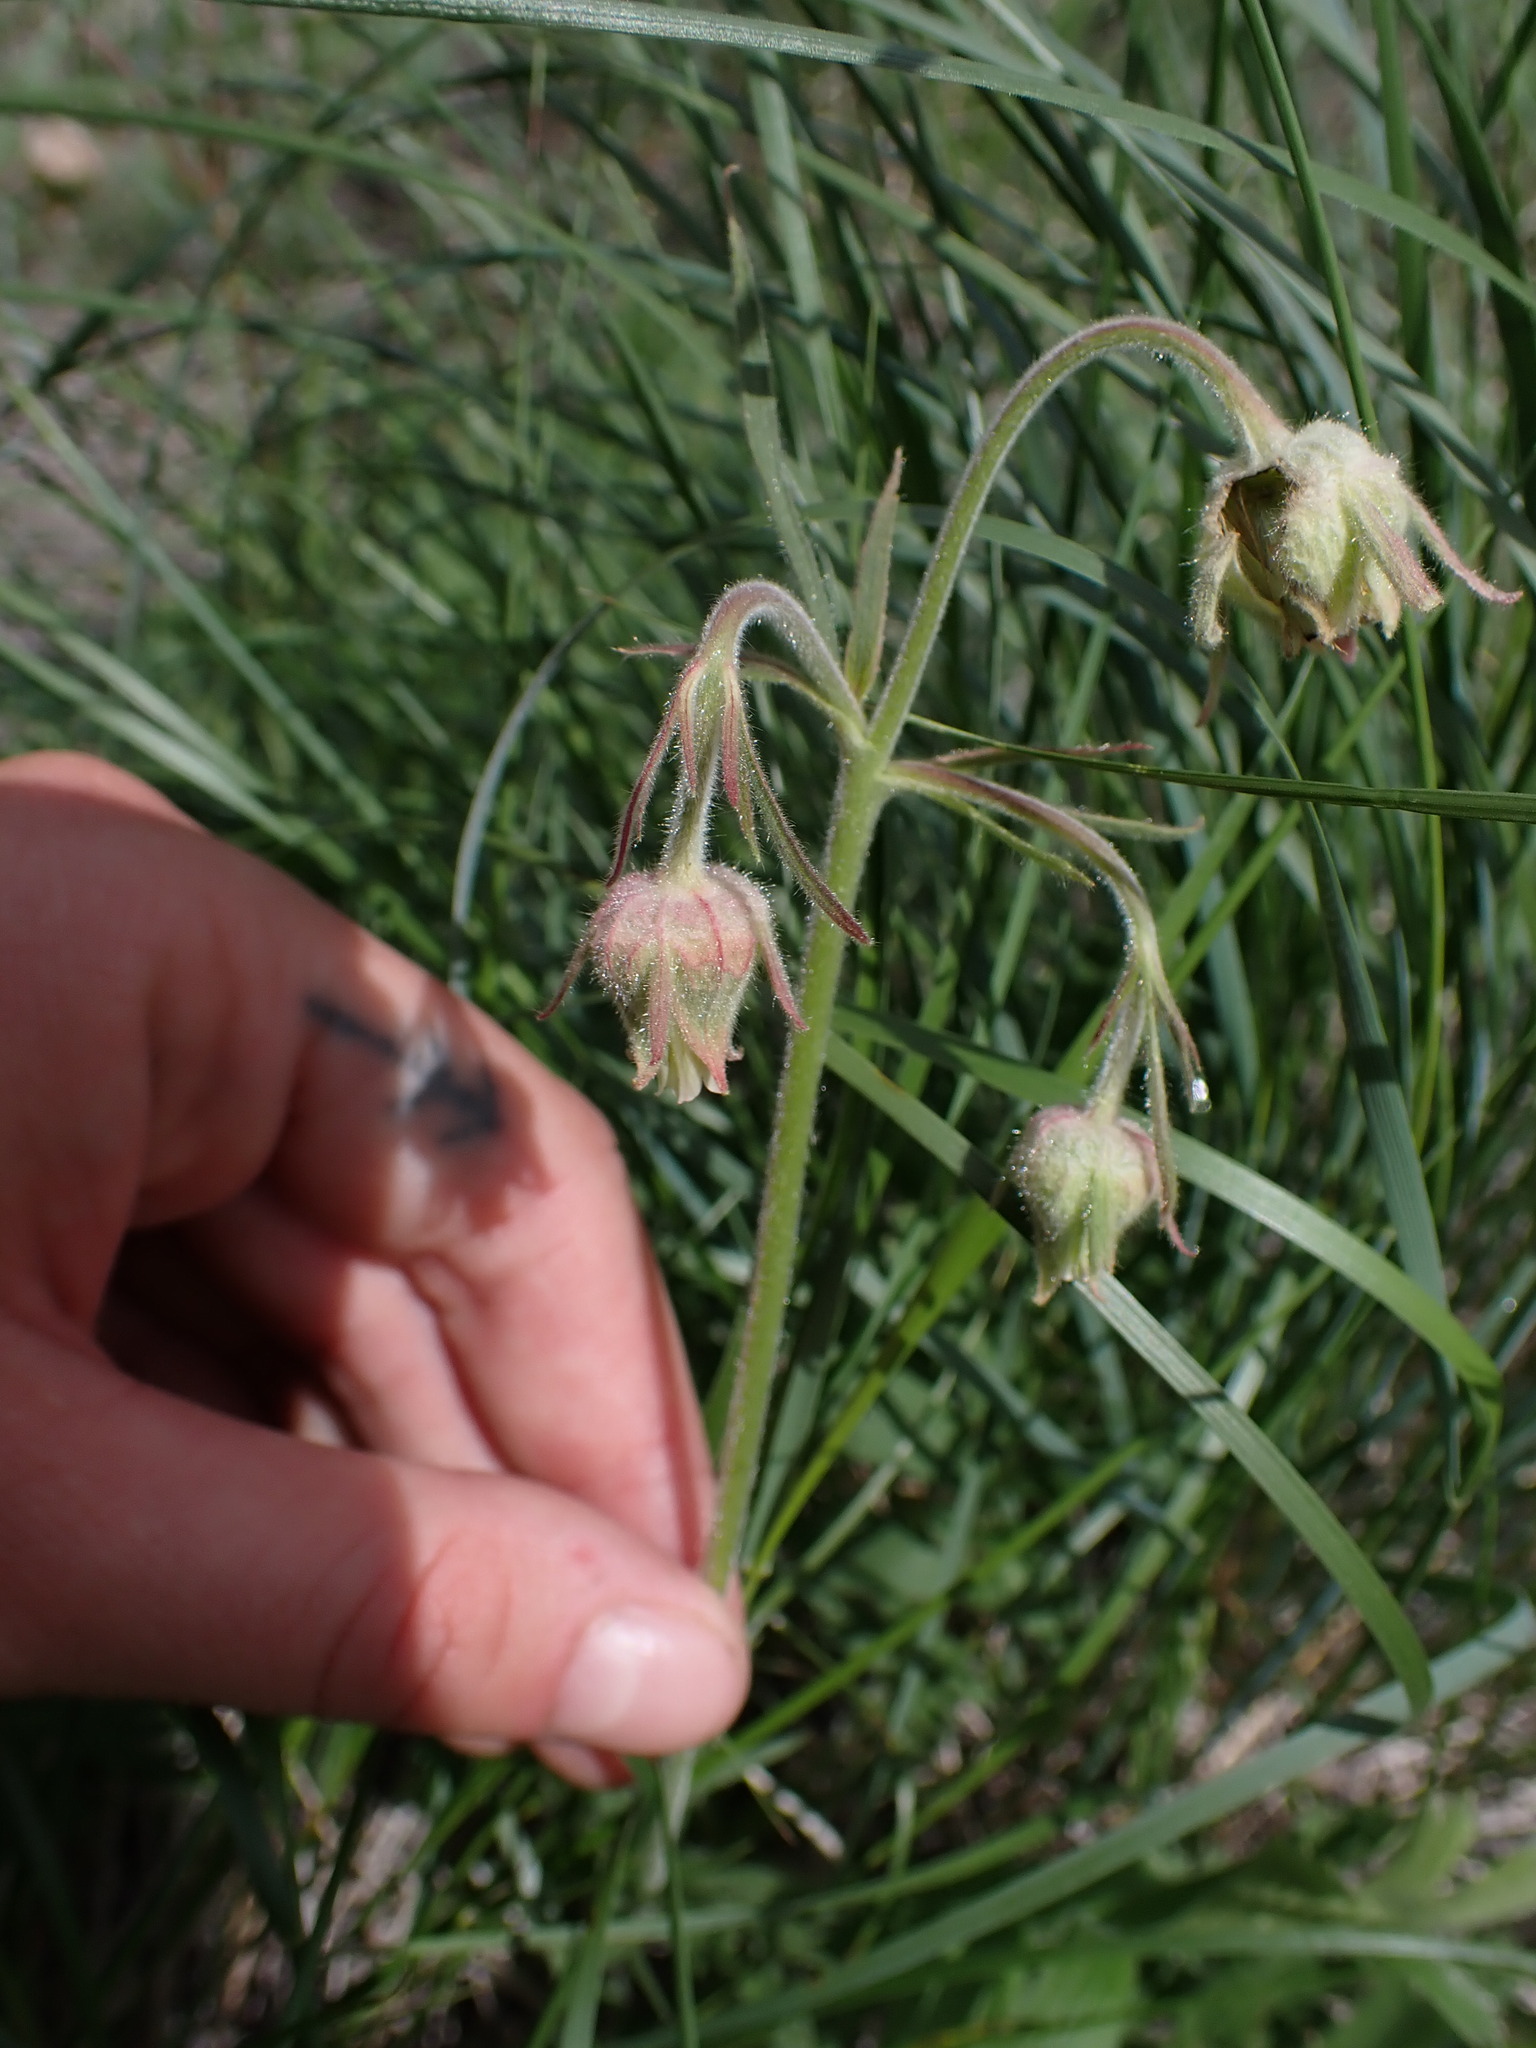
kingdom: Plantae
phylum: Tracheophyta
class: Magnoliopsida
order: Rosales
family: Rosaceae
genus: Geum
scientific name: Geum triflorum
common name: Old man's whiskers
